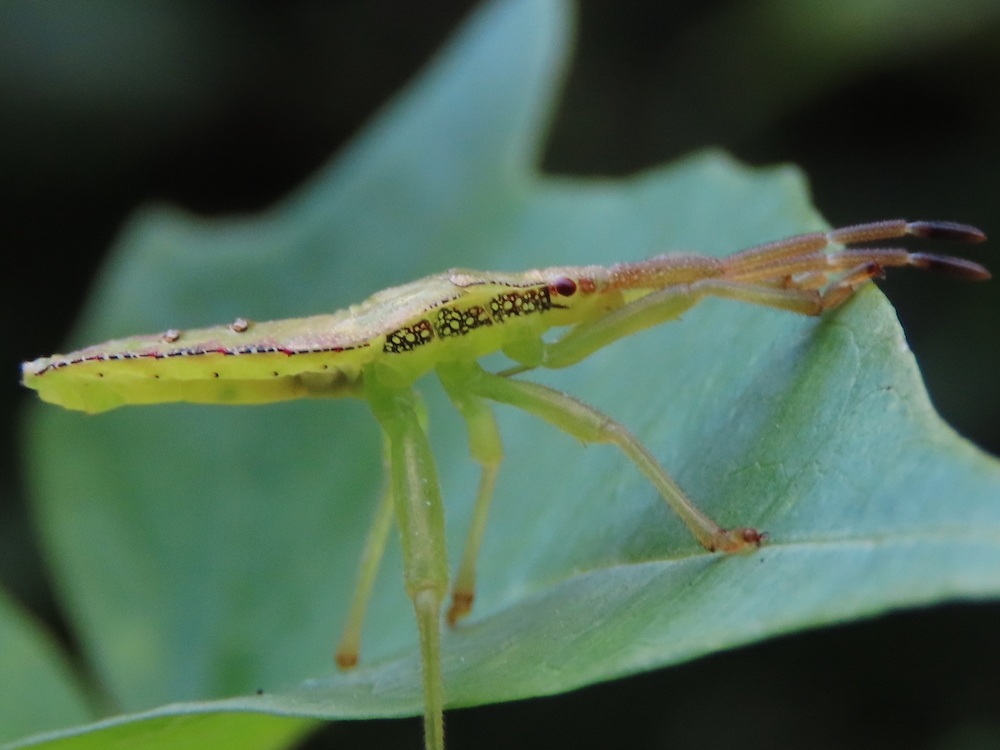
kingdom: Animalia
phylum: Arthropoda
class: Insecta
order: Hemiptera
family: Coreidae
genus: Piezogaster
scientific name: Piezogaster calcarator
